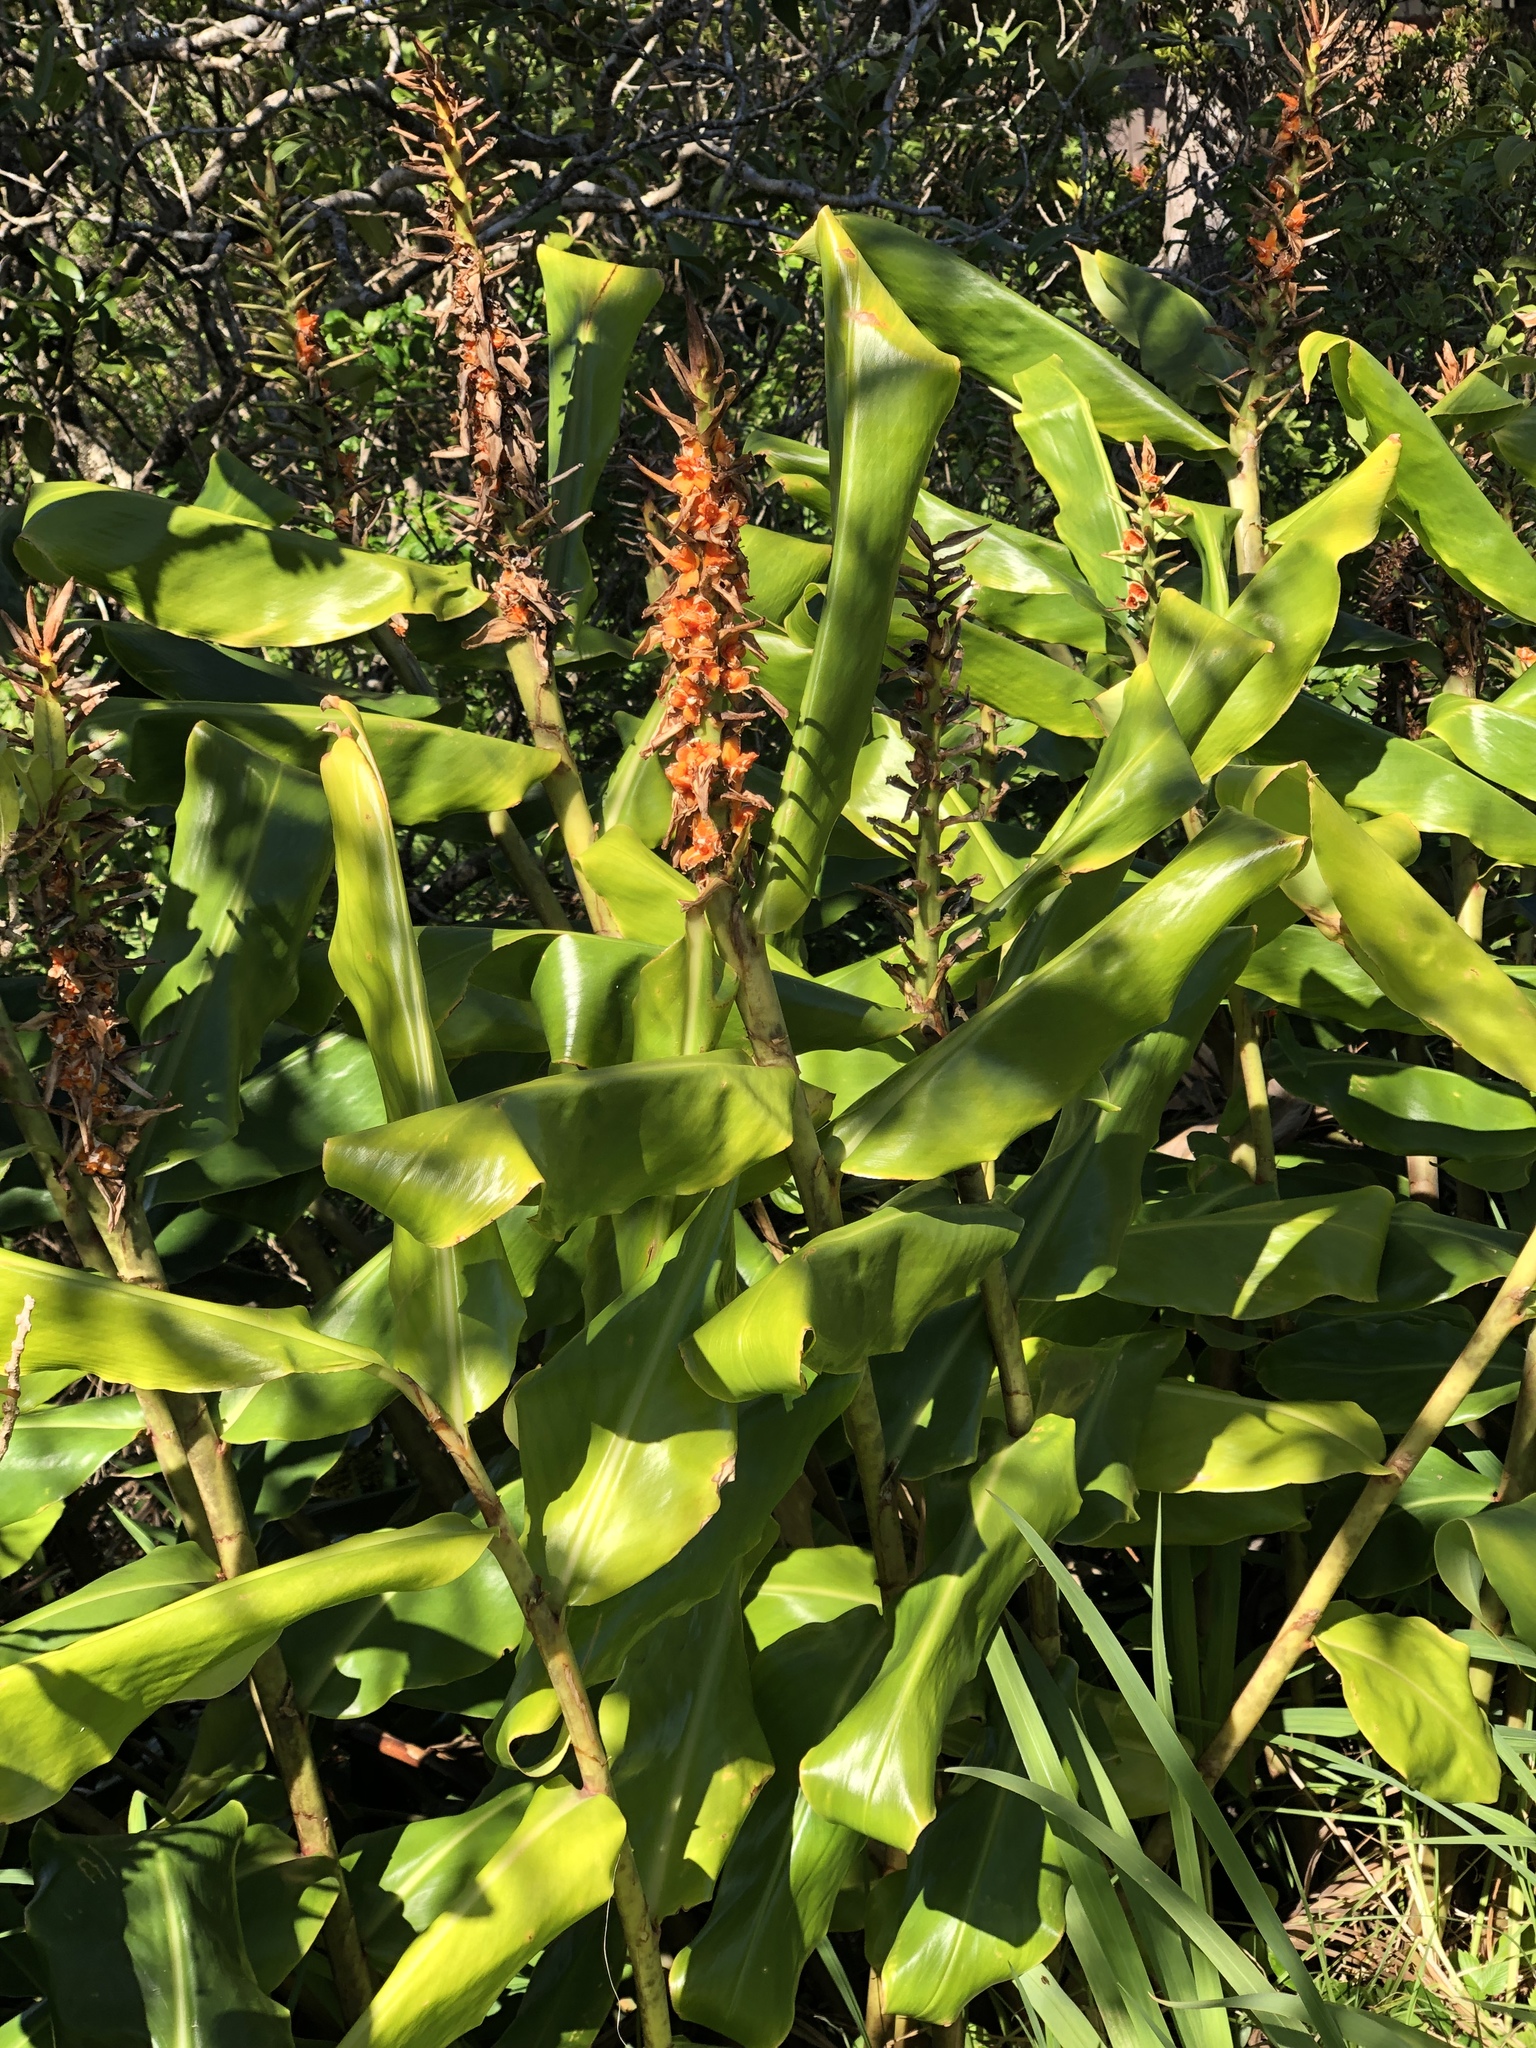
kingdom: Plantae
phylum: Tracheophyta
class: Liliopsida
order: Zingiberales
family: Zingiberaceae
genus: Hedychium
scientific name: Hedychium gardnerianum
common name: Himalayan ginger
